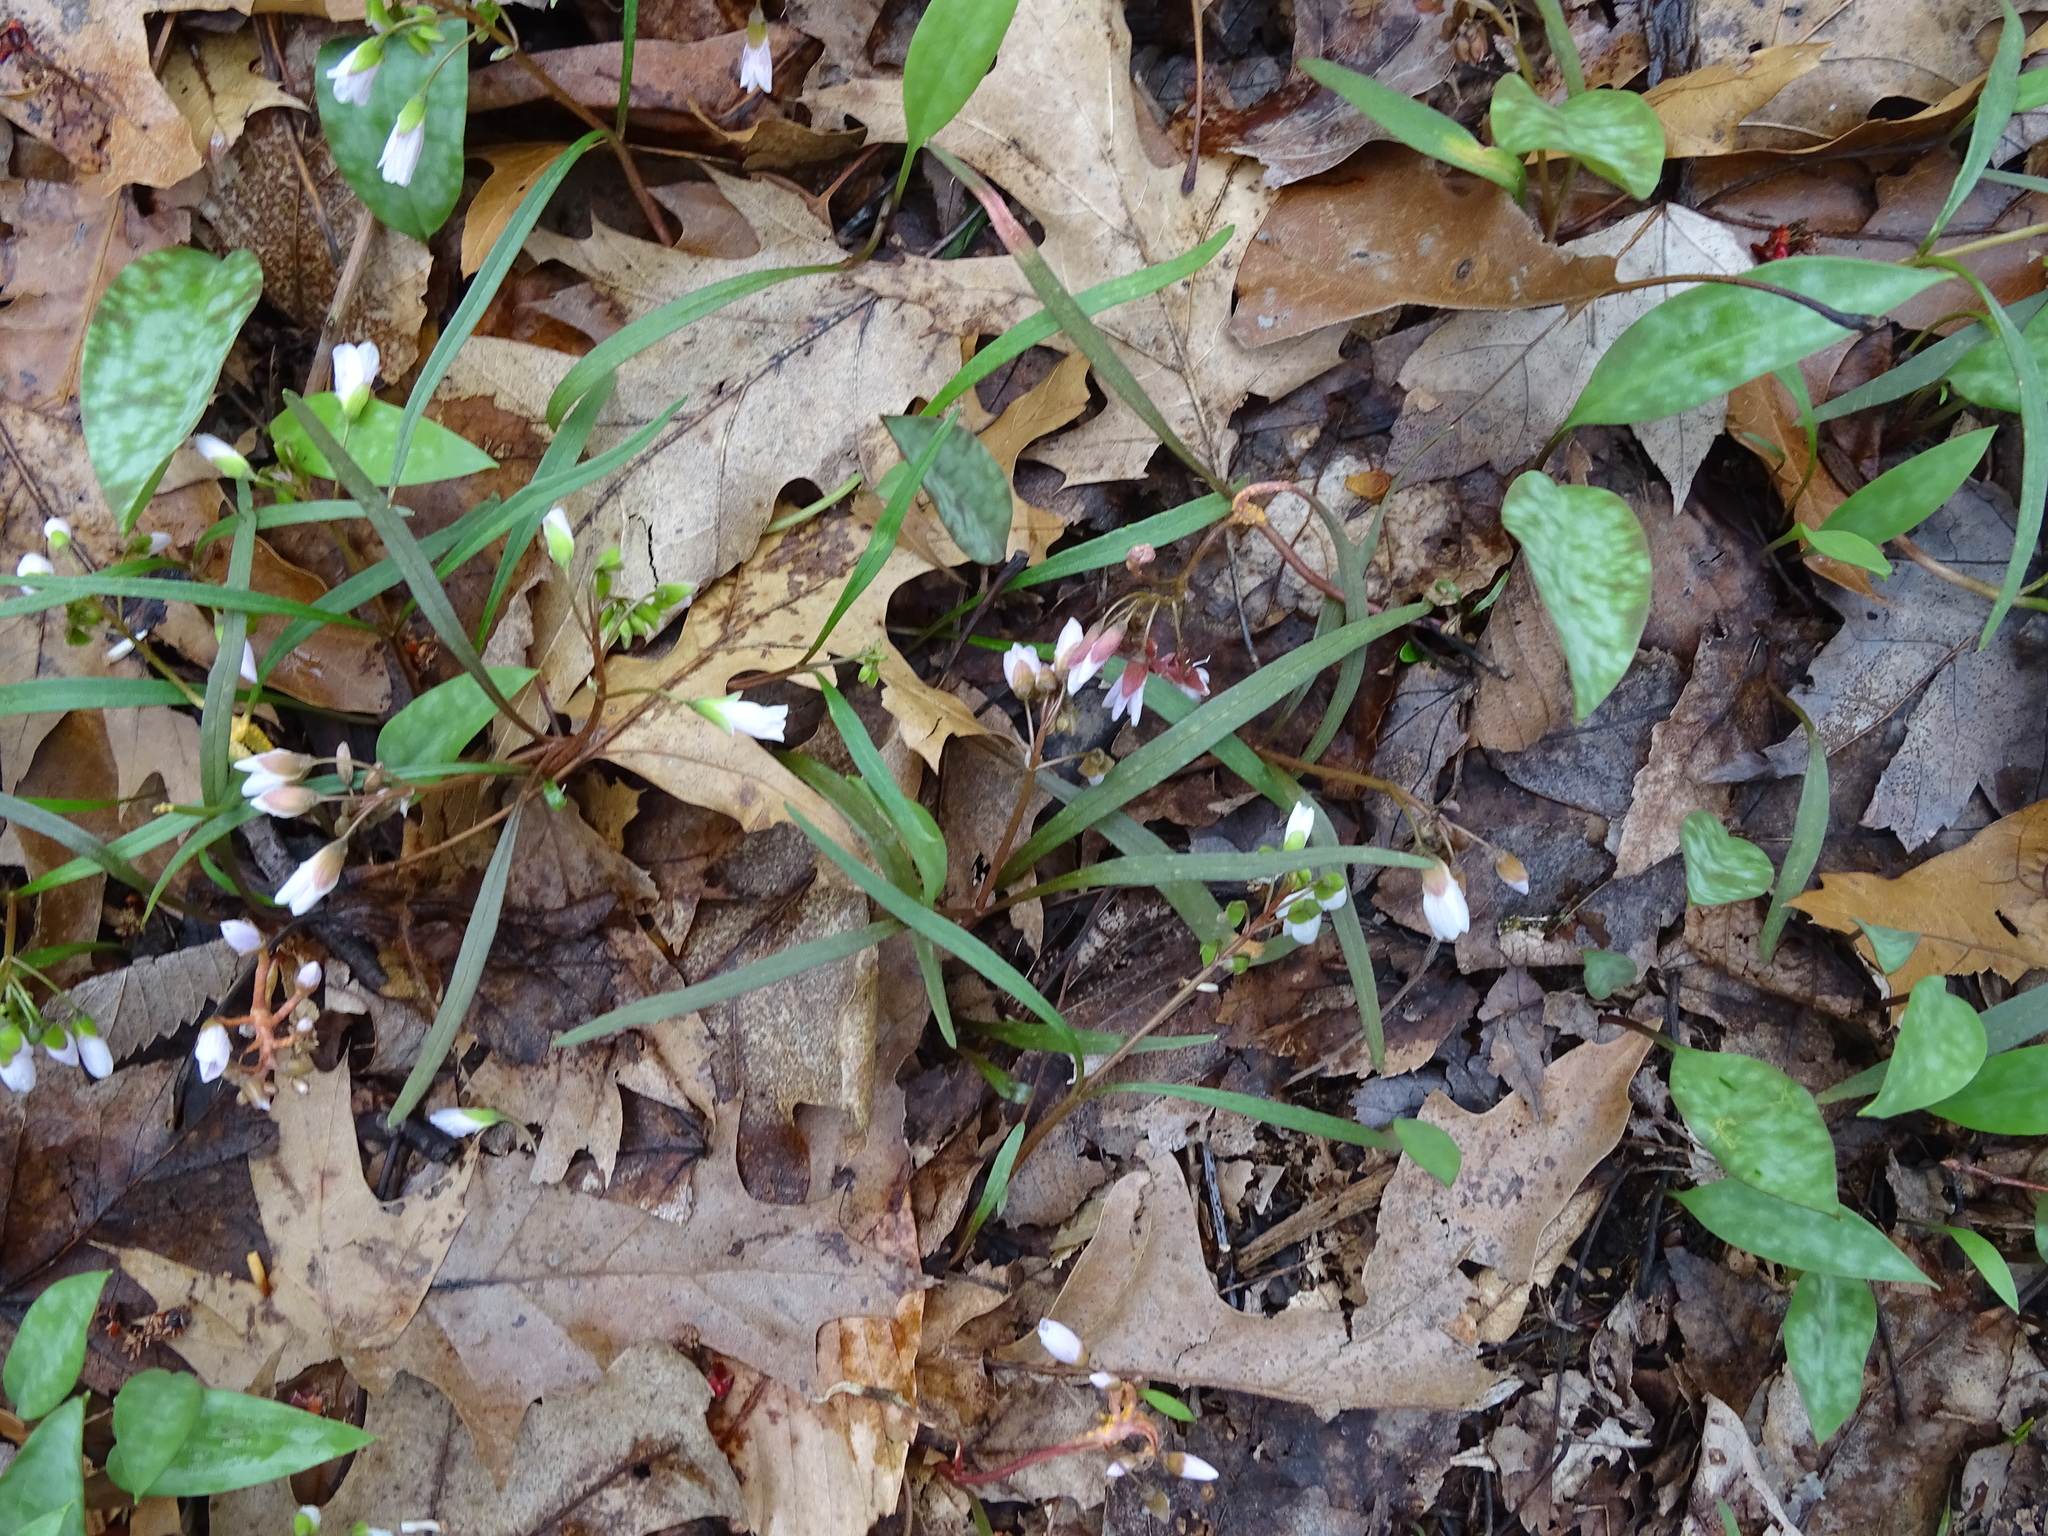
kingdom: Plantae
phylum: Tracheophyta
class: Magnoliopsida
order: Caryophyllales
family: Montiaceae
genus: Claytonia
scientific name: Claytonia virginica
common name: Virginia springbeauty
